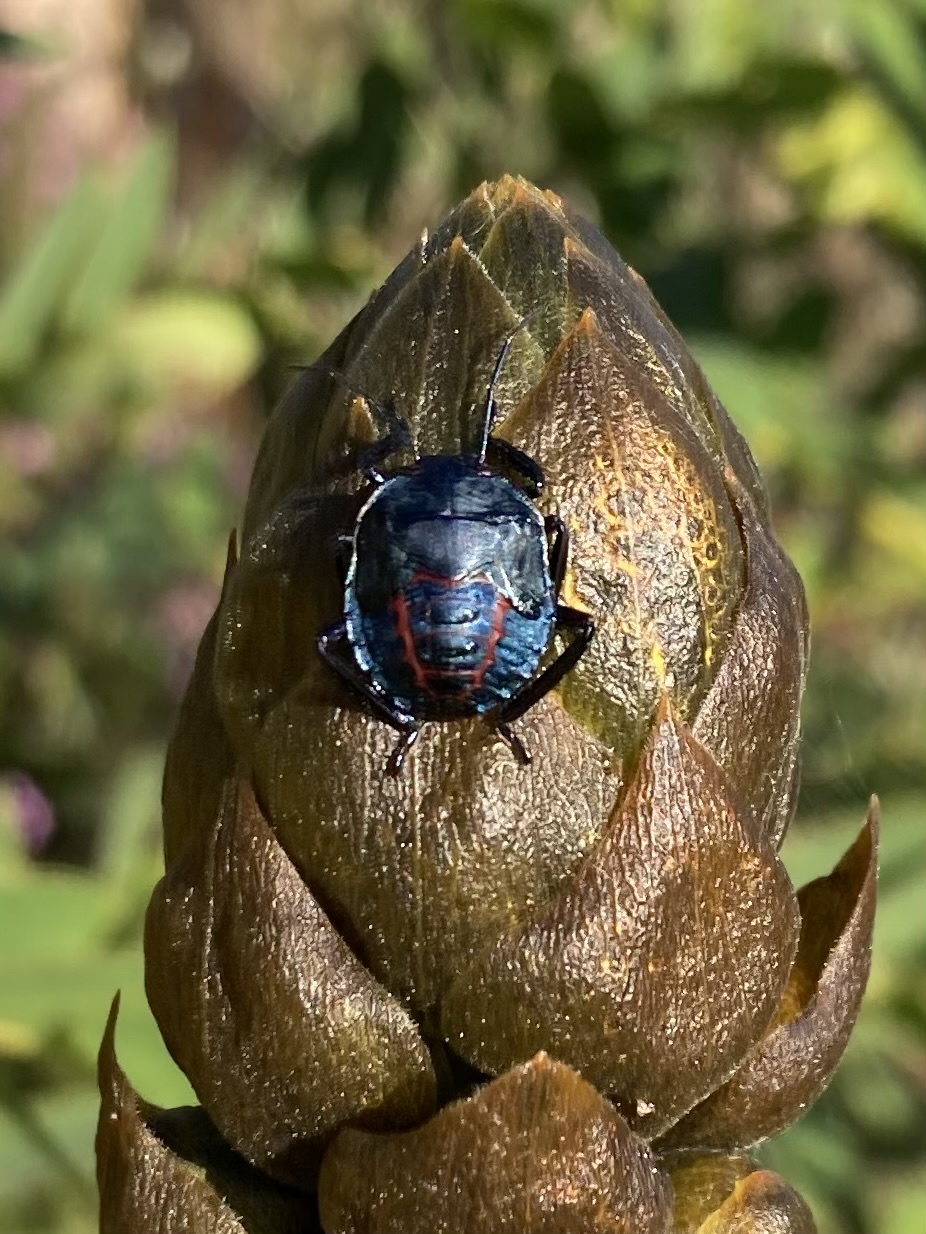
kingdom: Animalia
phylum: Arthropoda
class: Insecta
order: Hemiptera
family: Pentatomidae
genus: Pellaea
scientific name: Pellaea stictica
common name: Stink bug
